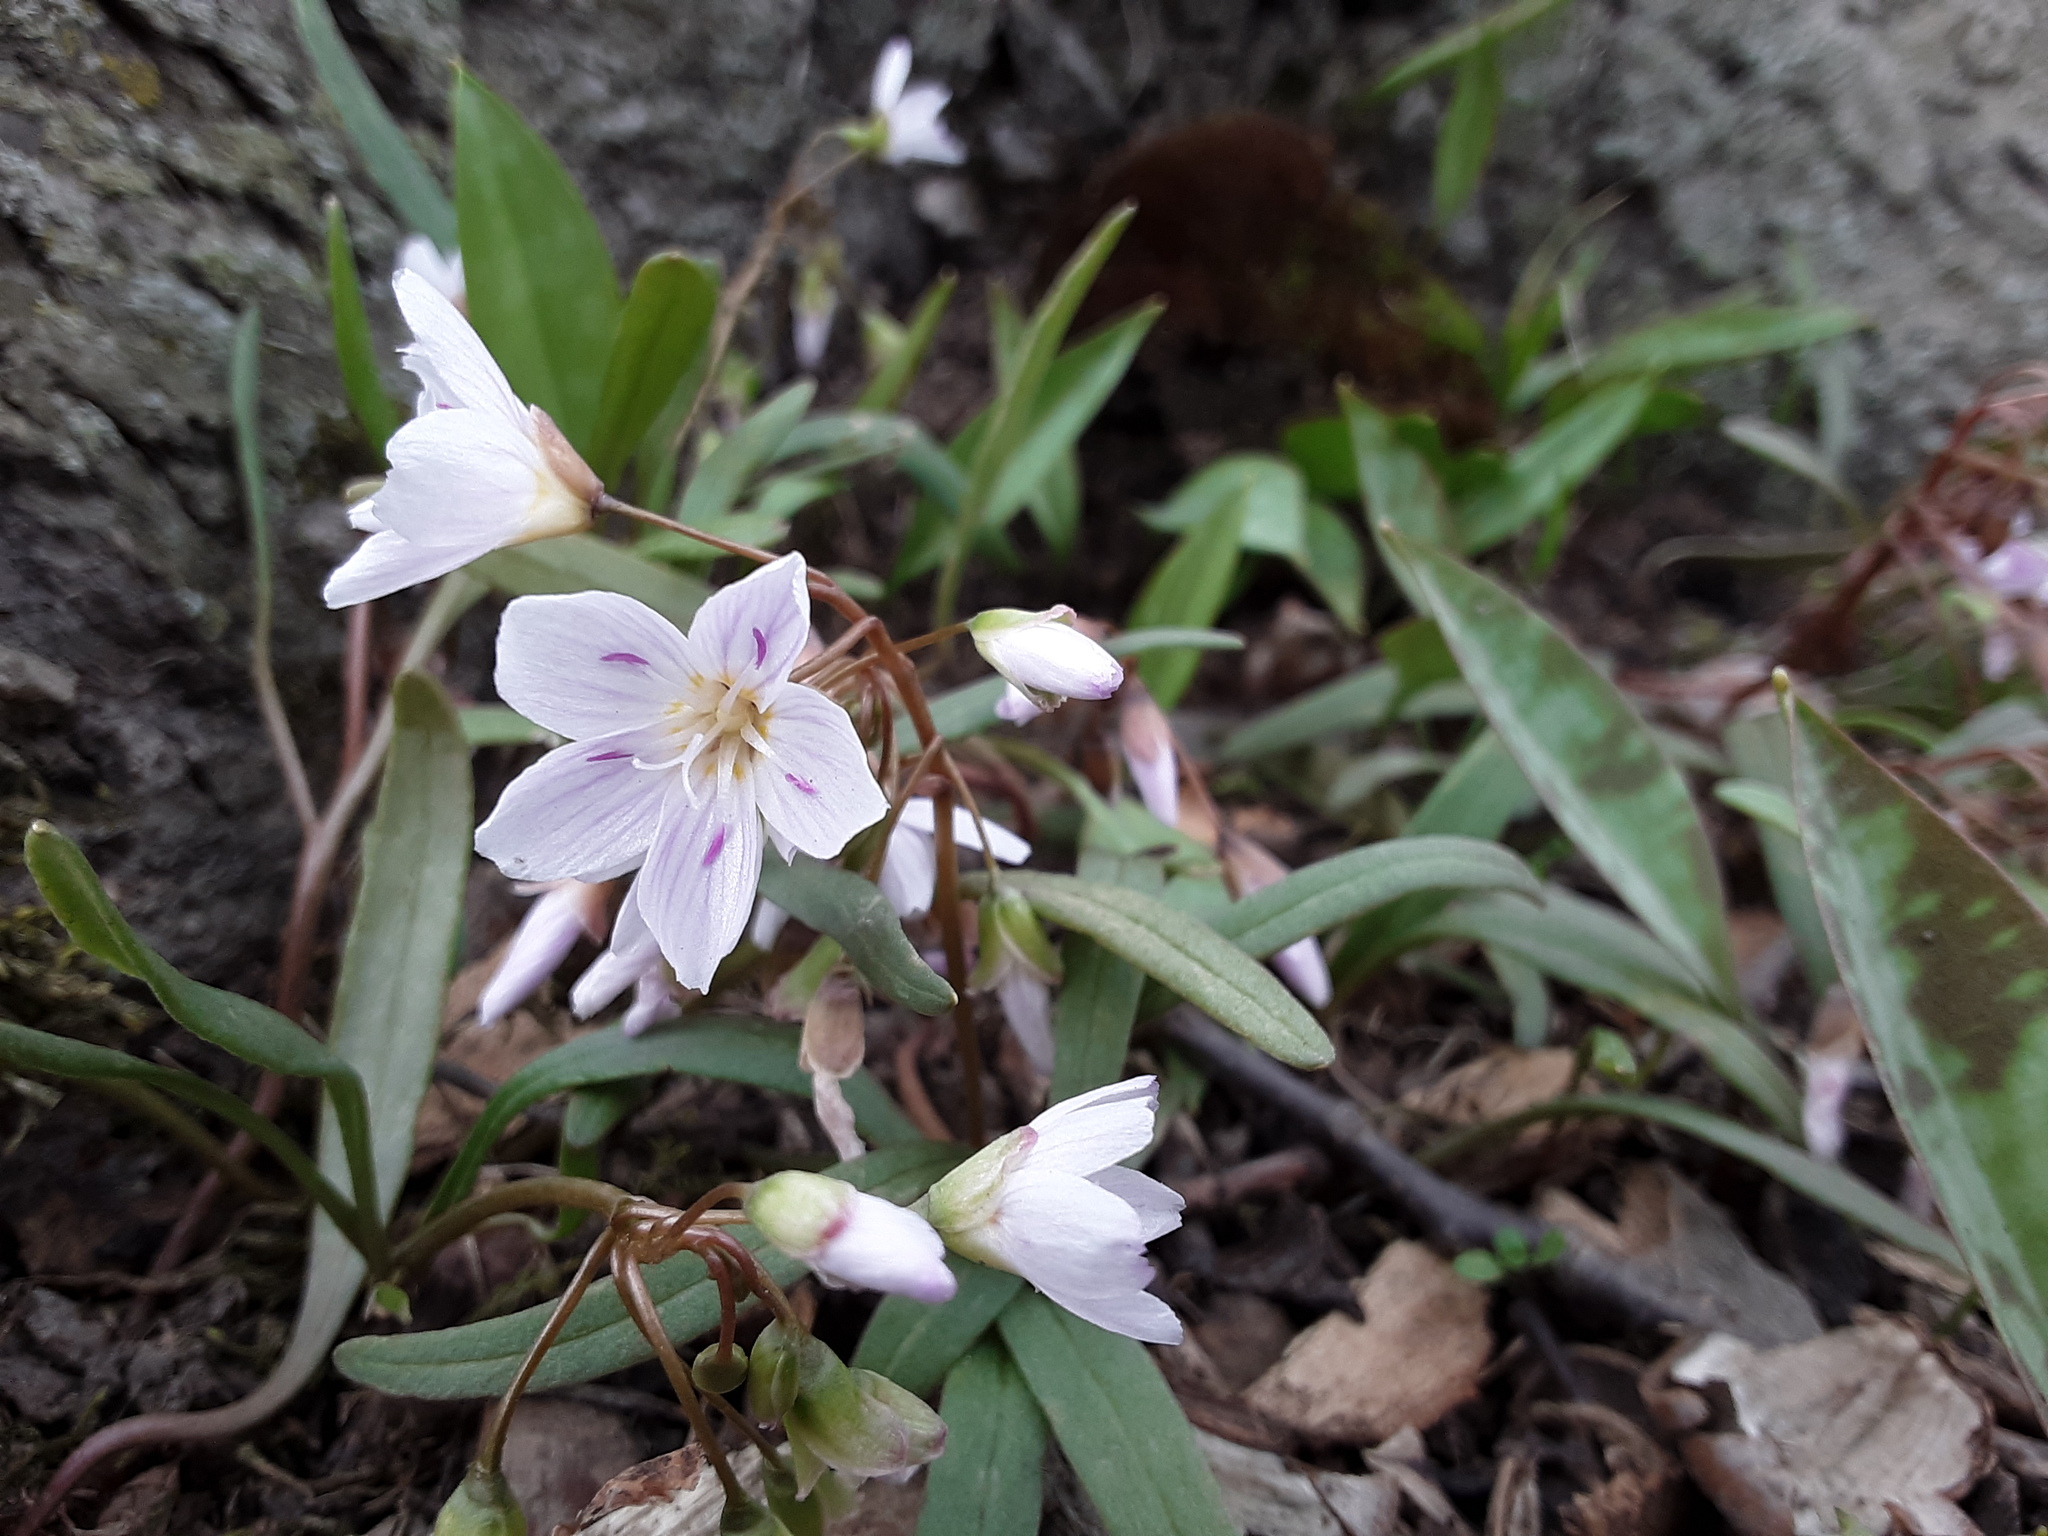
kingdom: Plantae
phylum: Tracheophyta
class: Magnoliopsida
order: Caryophyllales
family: Montiaceae
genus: Claytonia
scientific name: Claytonia virginica
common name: Virginia springbeauty
